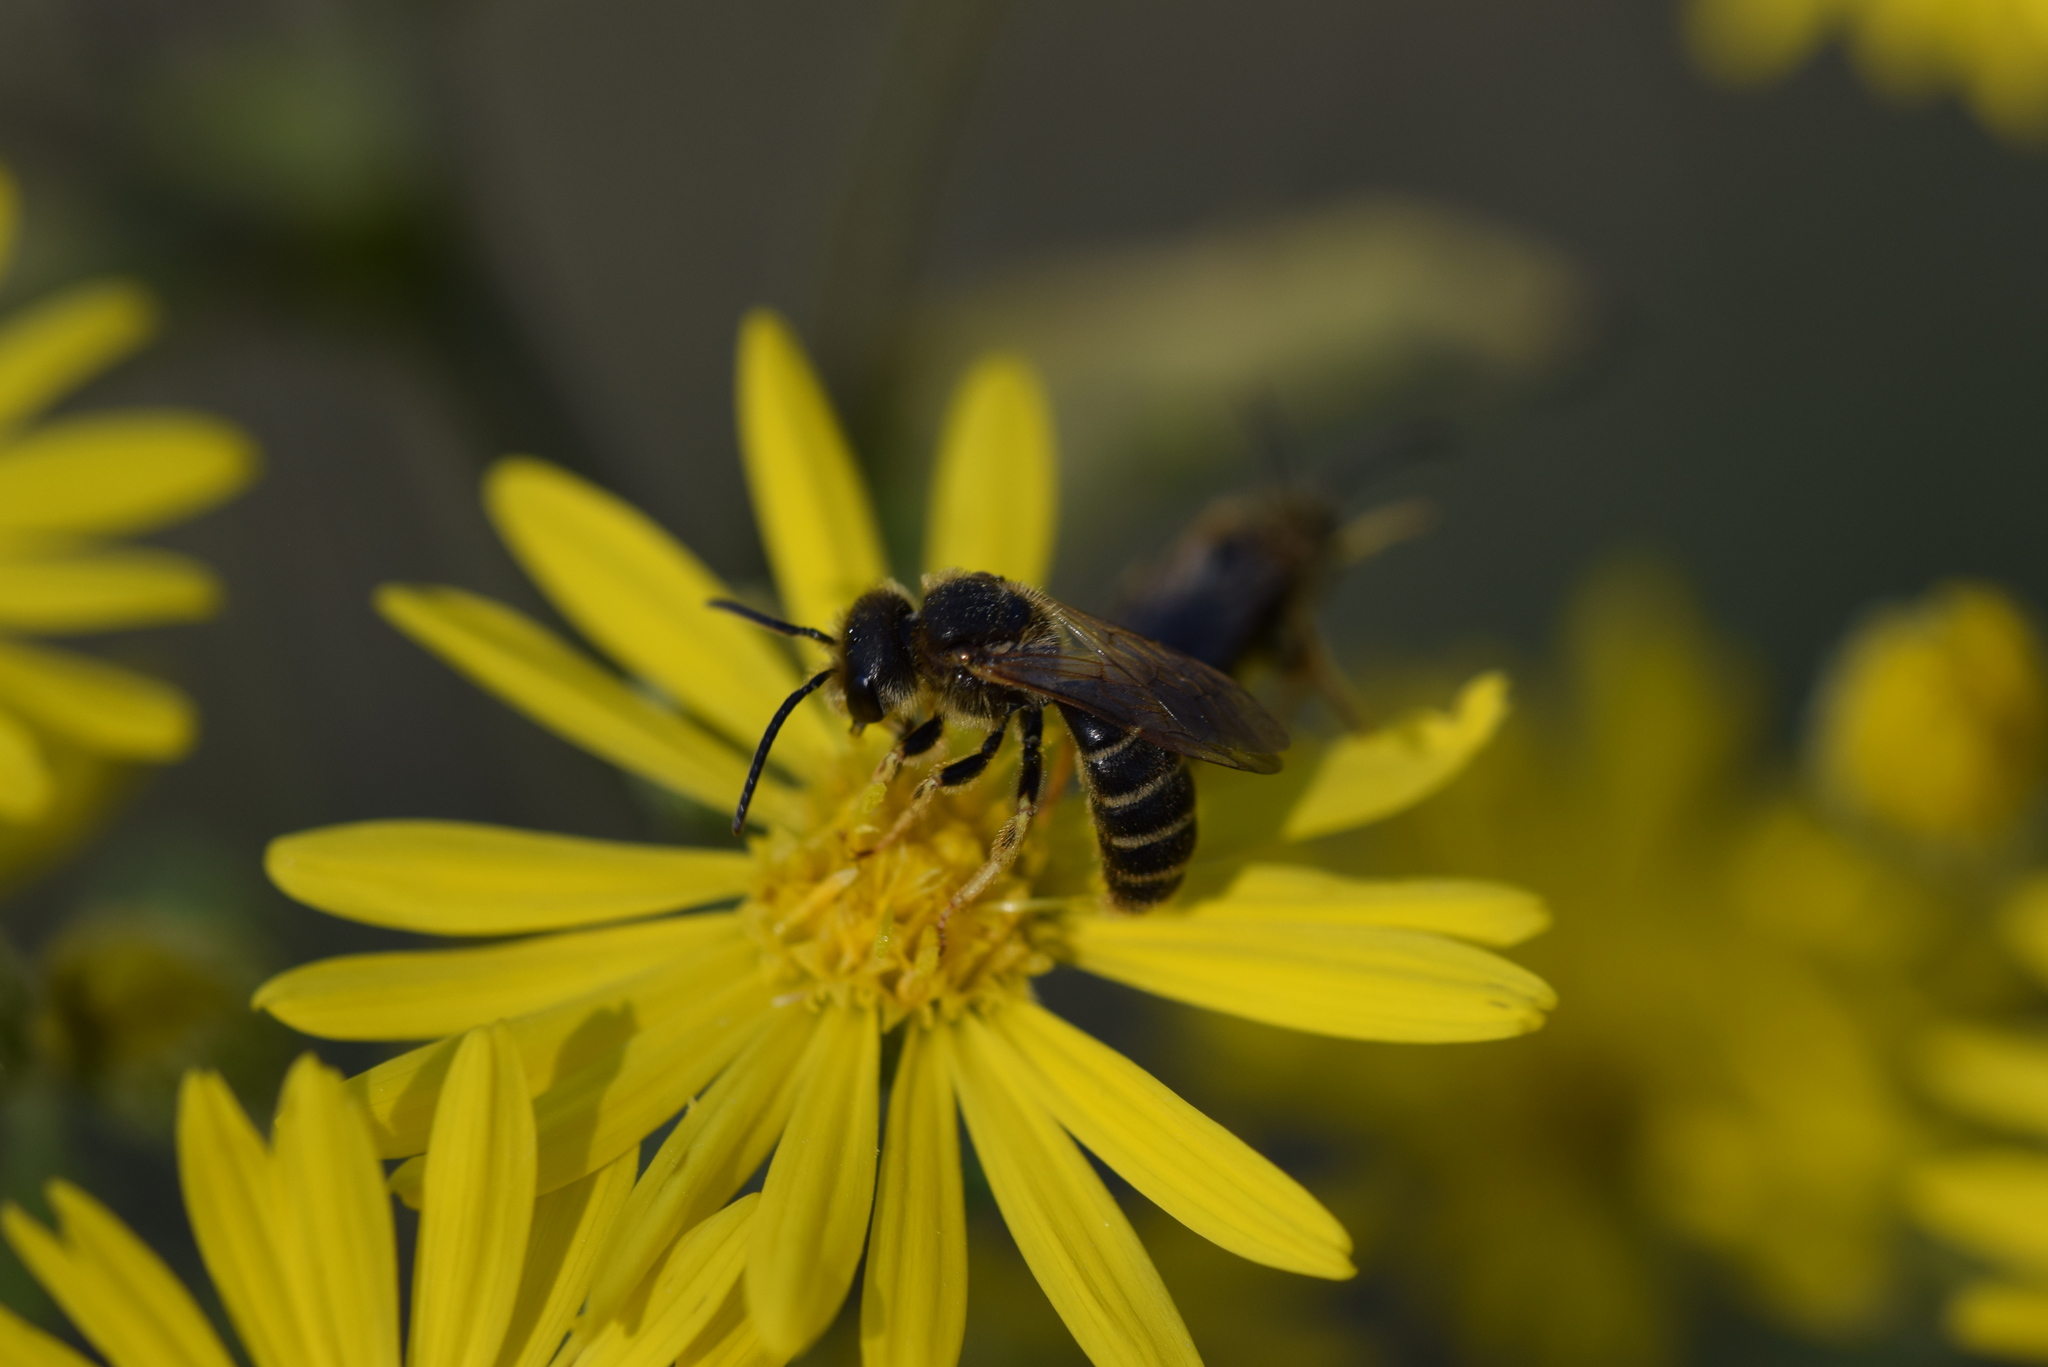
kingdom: Animalia
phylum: Arthropoda
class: Insecta
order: Hymenoptera
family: Halictidae
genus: Halictus
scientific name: Halictus ligatus
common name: Ligated furrow bee
